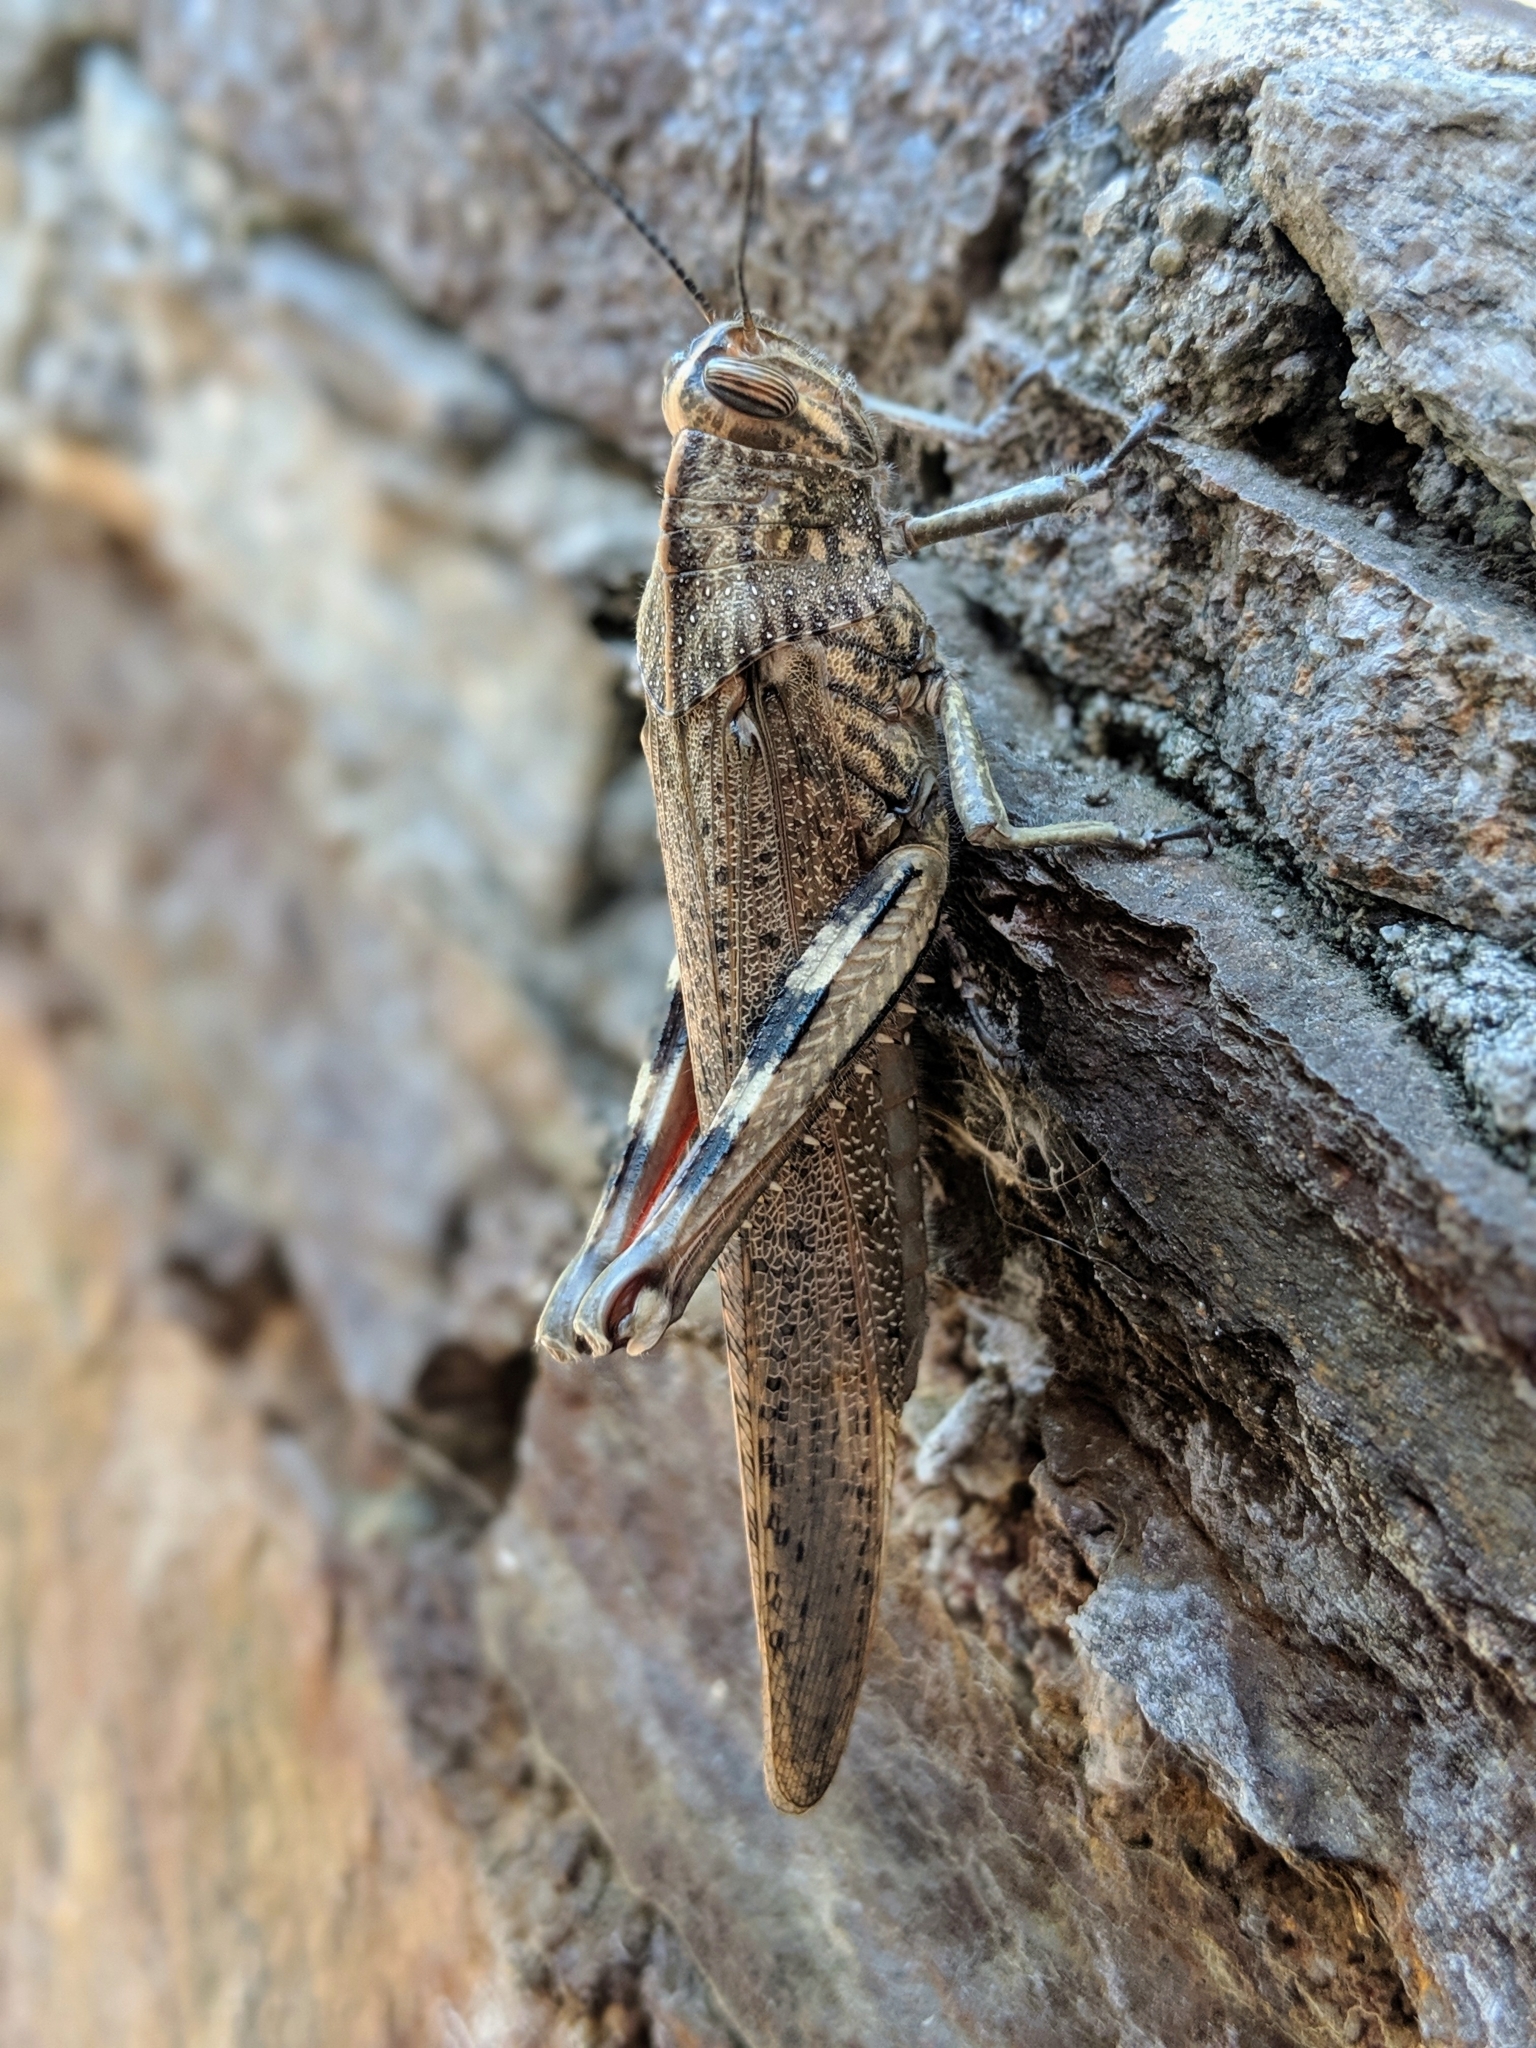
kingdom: Animalia
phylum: Arthropoda
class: Insecta
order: Orthoptera
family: Acrididae
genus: Anacridium
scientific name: Anacridium aegyptium
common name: Egyptian grasshopper
